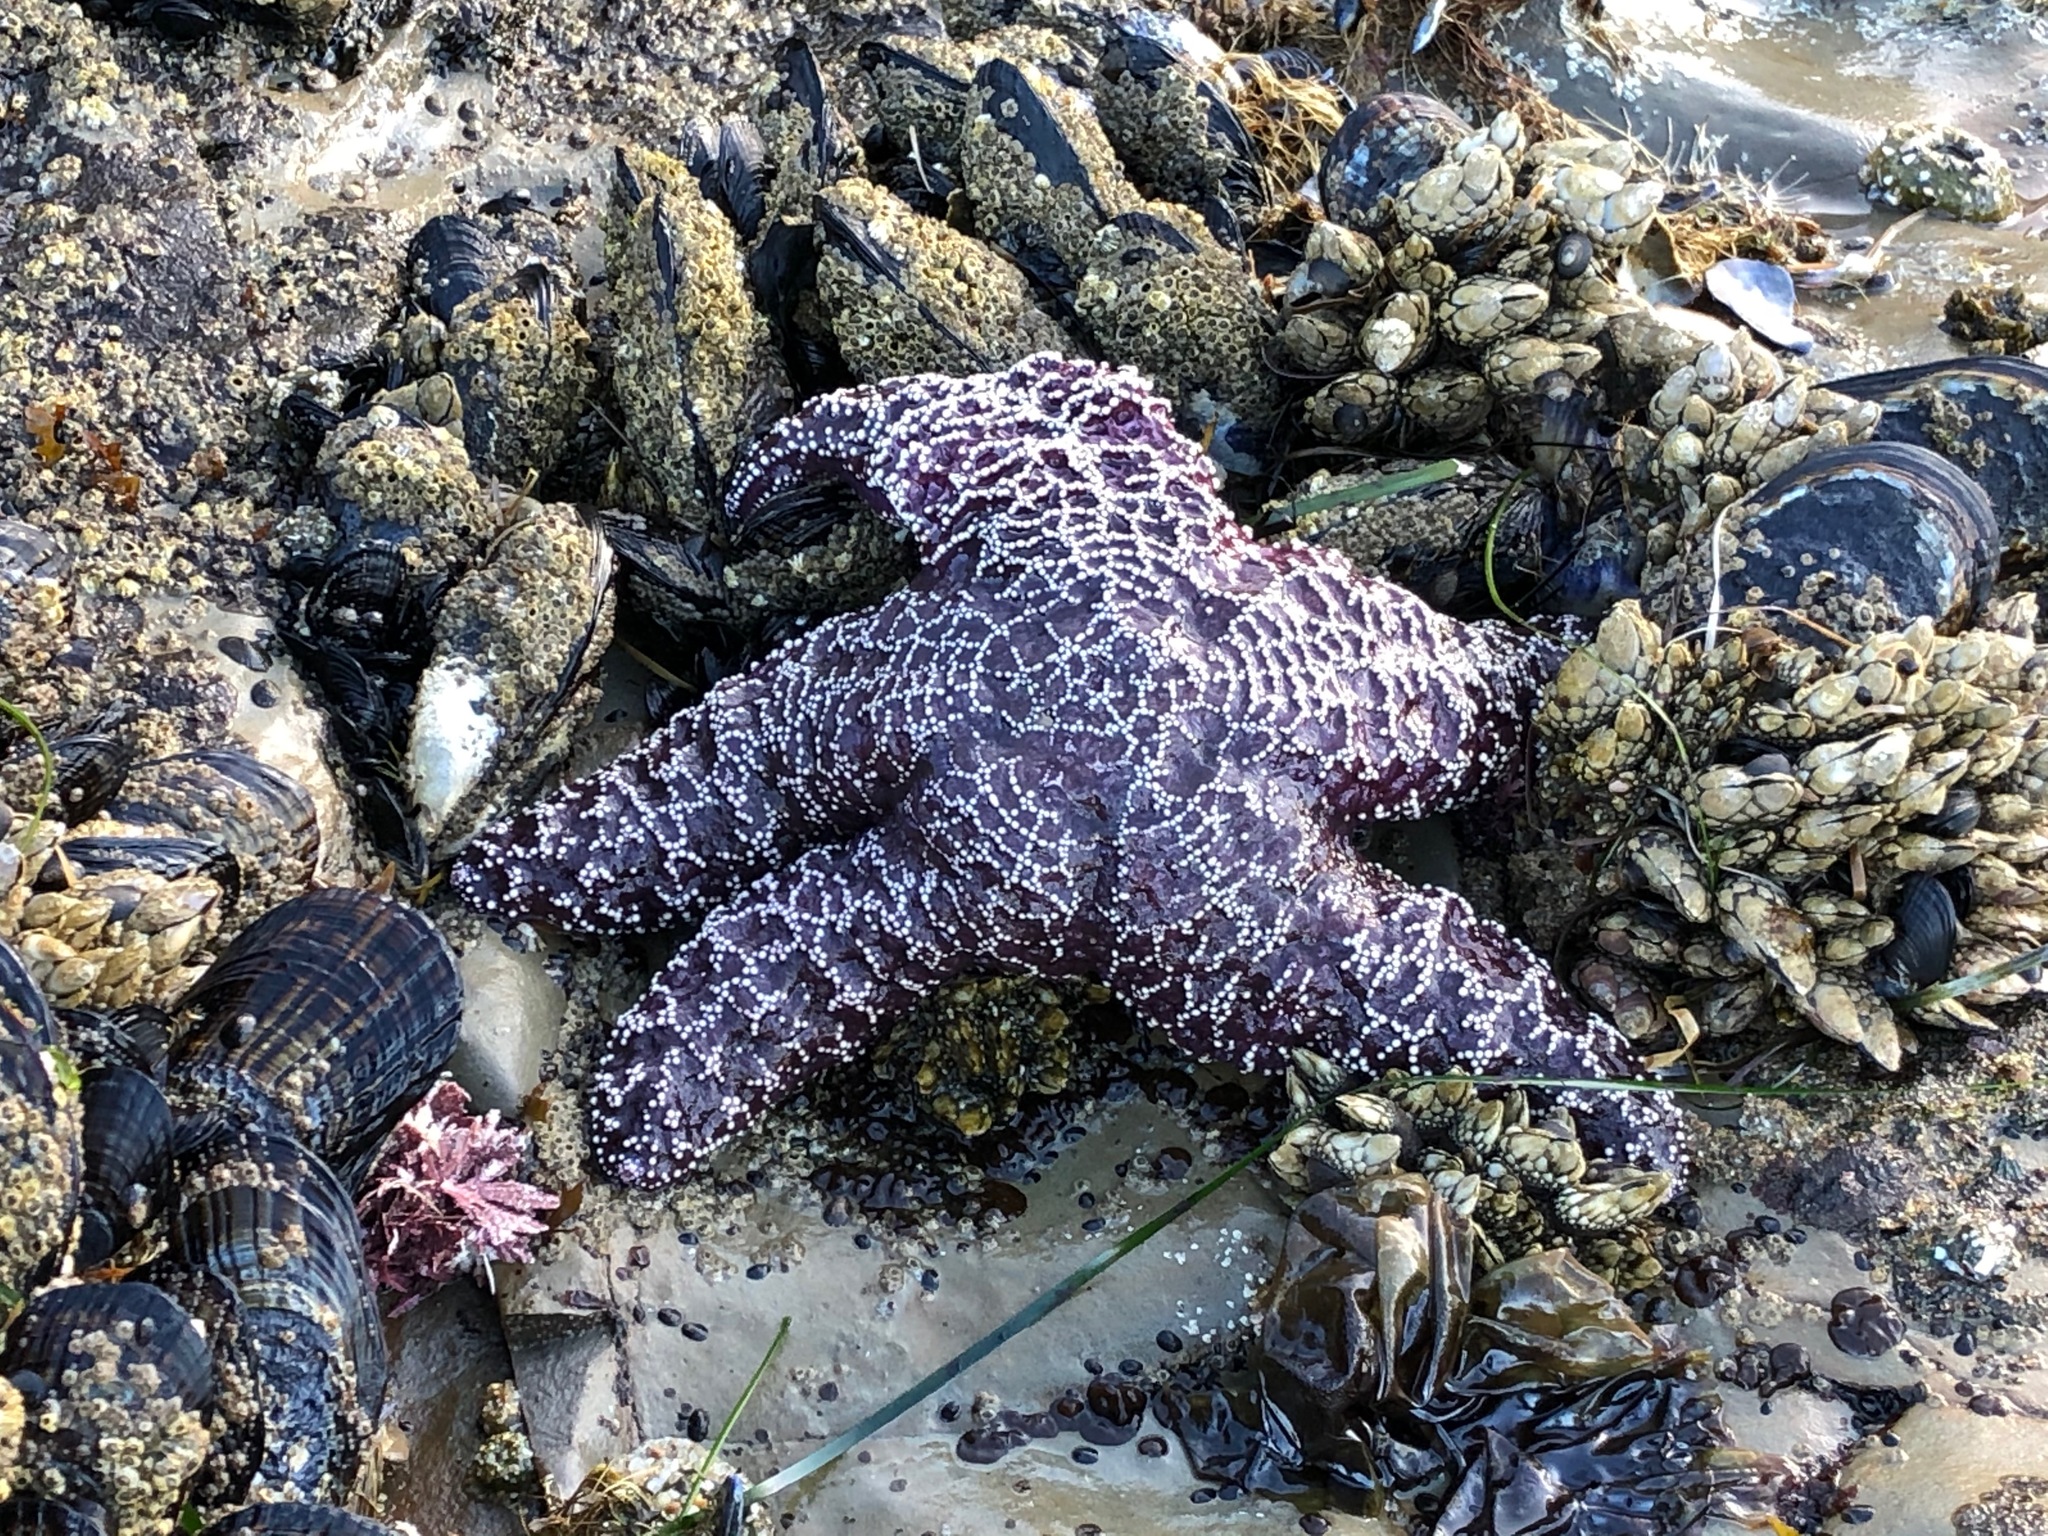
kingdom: Animalia
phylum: Echinodermata
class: Asteroidea
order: Forcipulatida
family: Asteriidae
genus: Pisaster
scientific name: Pisaster ochraceus
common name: Ochre stars
